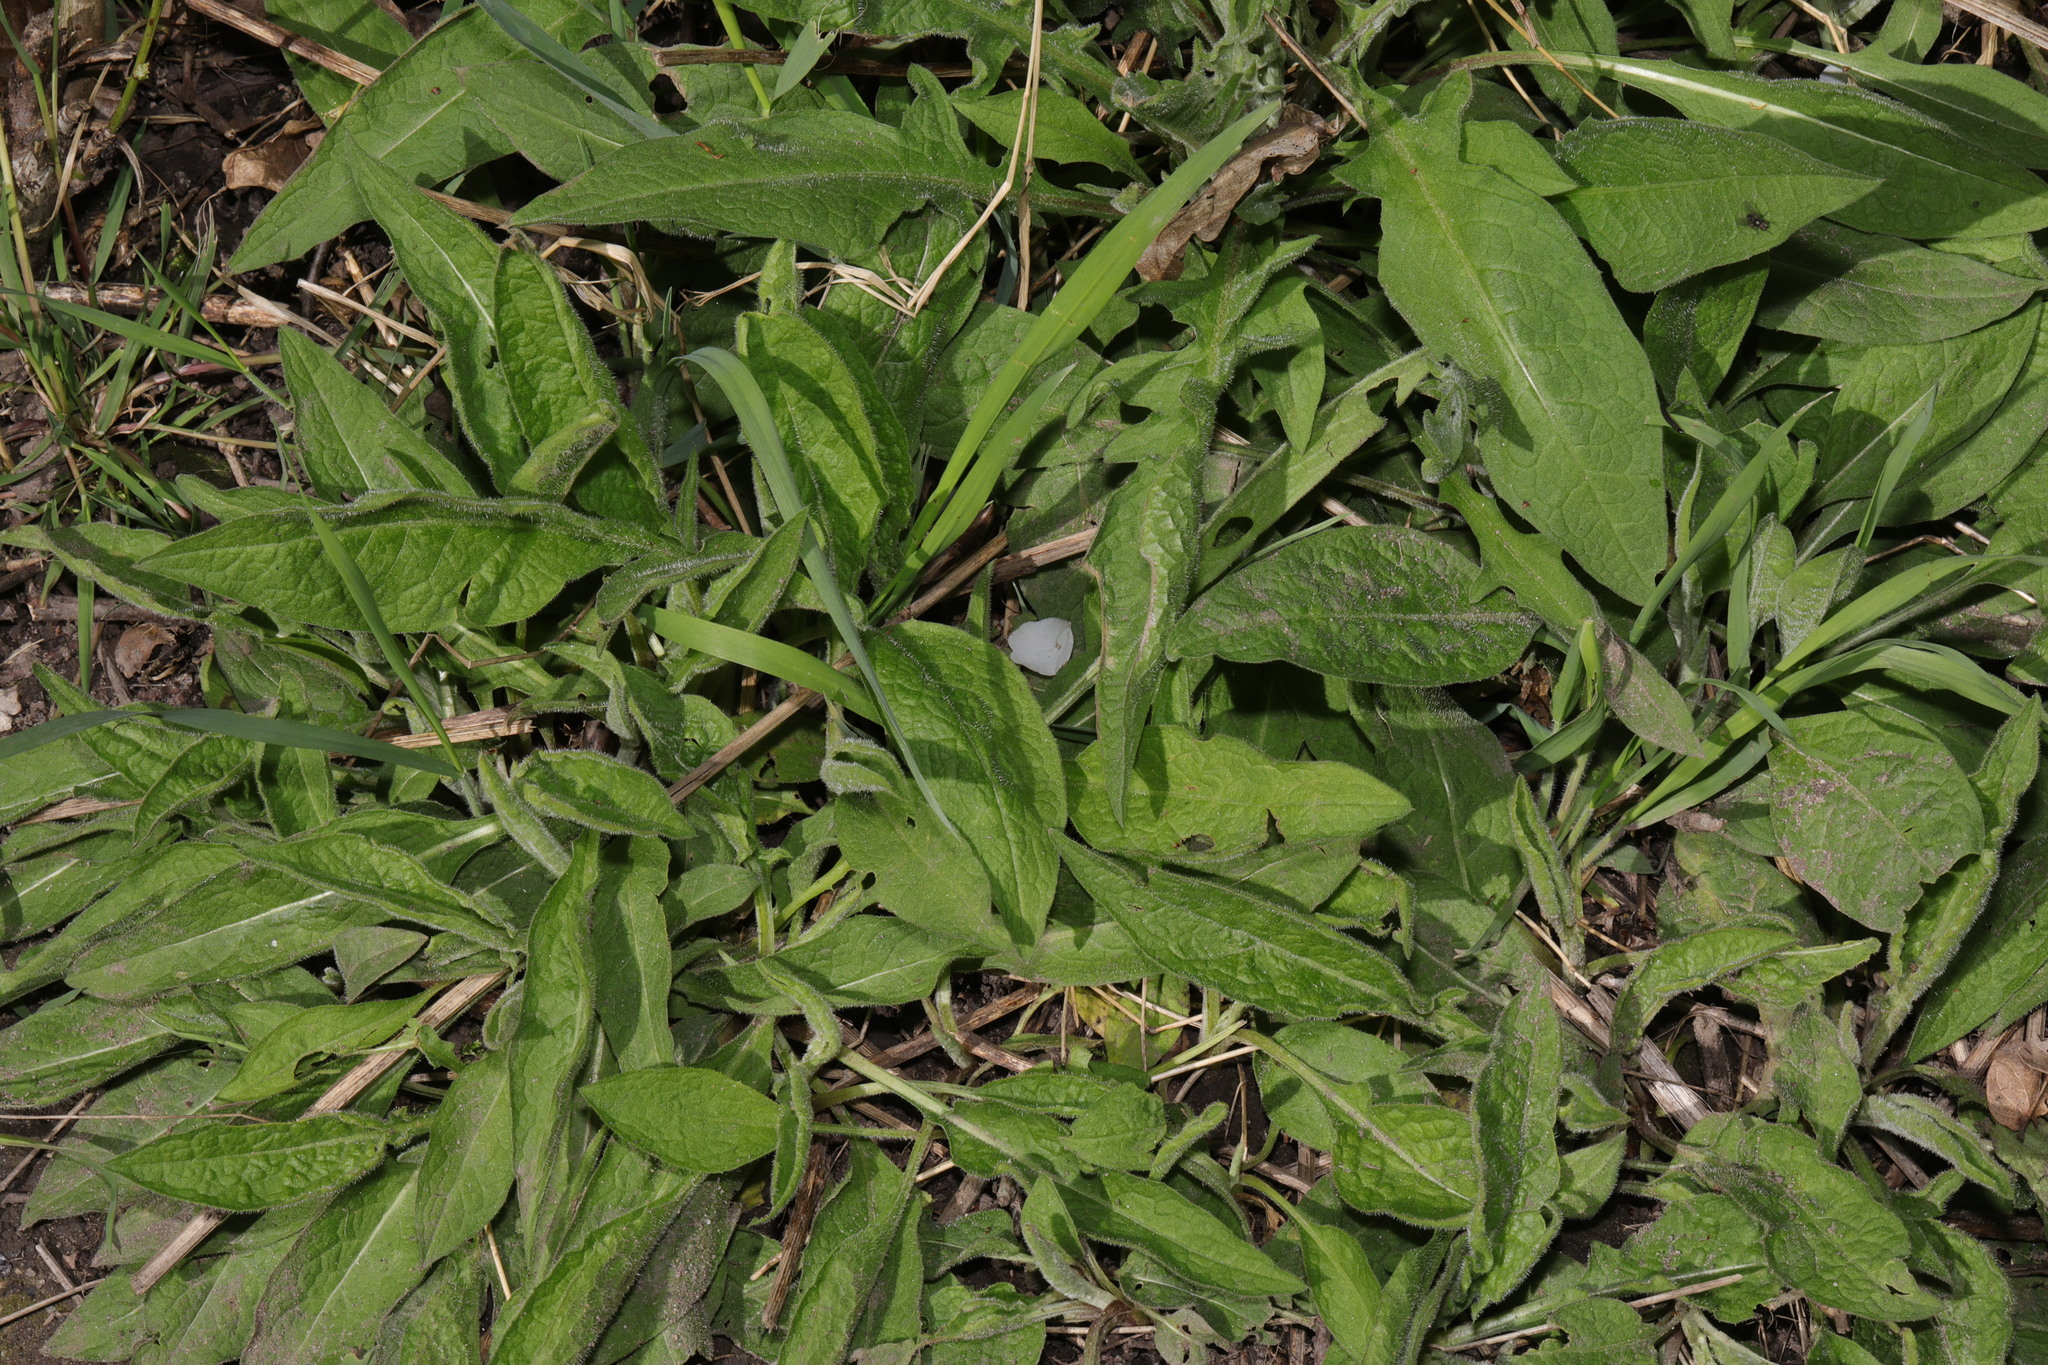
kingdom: Plantae
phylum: Tracheophyta
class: Magnoliopsida
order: Asterales
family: Asteraceae
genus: Centaurea
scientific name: Centaurea nigra
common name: Lesser knapweed
